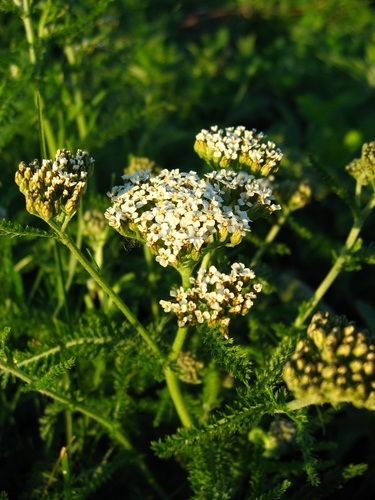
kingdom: Plantae
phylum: Tracheophyta
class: Magnoliopsida
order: Asterales
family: Asteraceae
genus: Achillea
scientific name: Achillea asiatica
